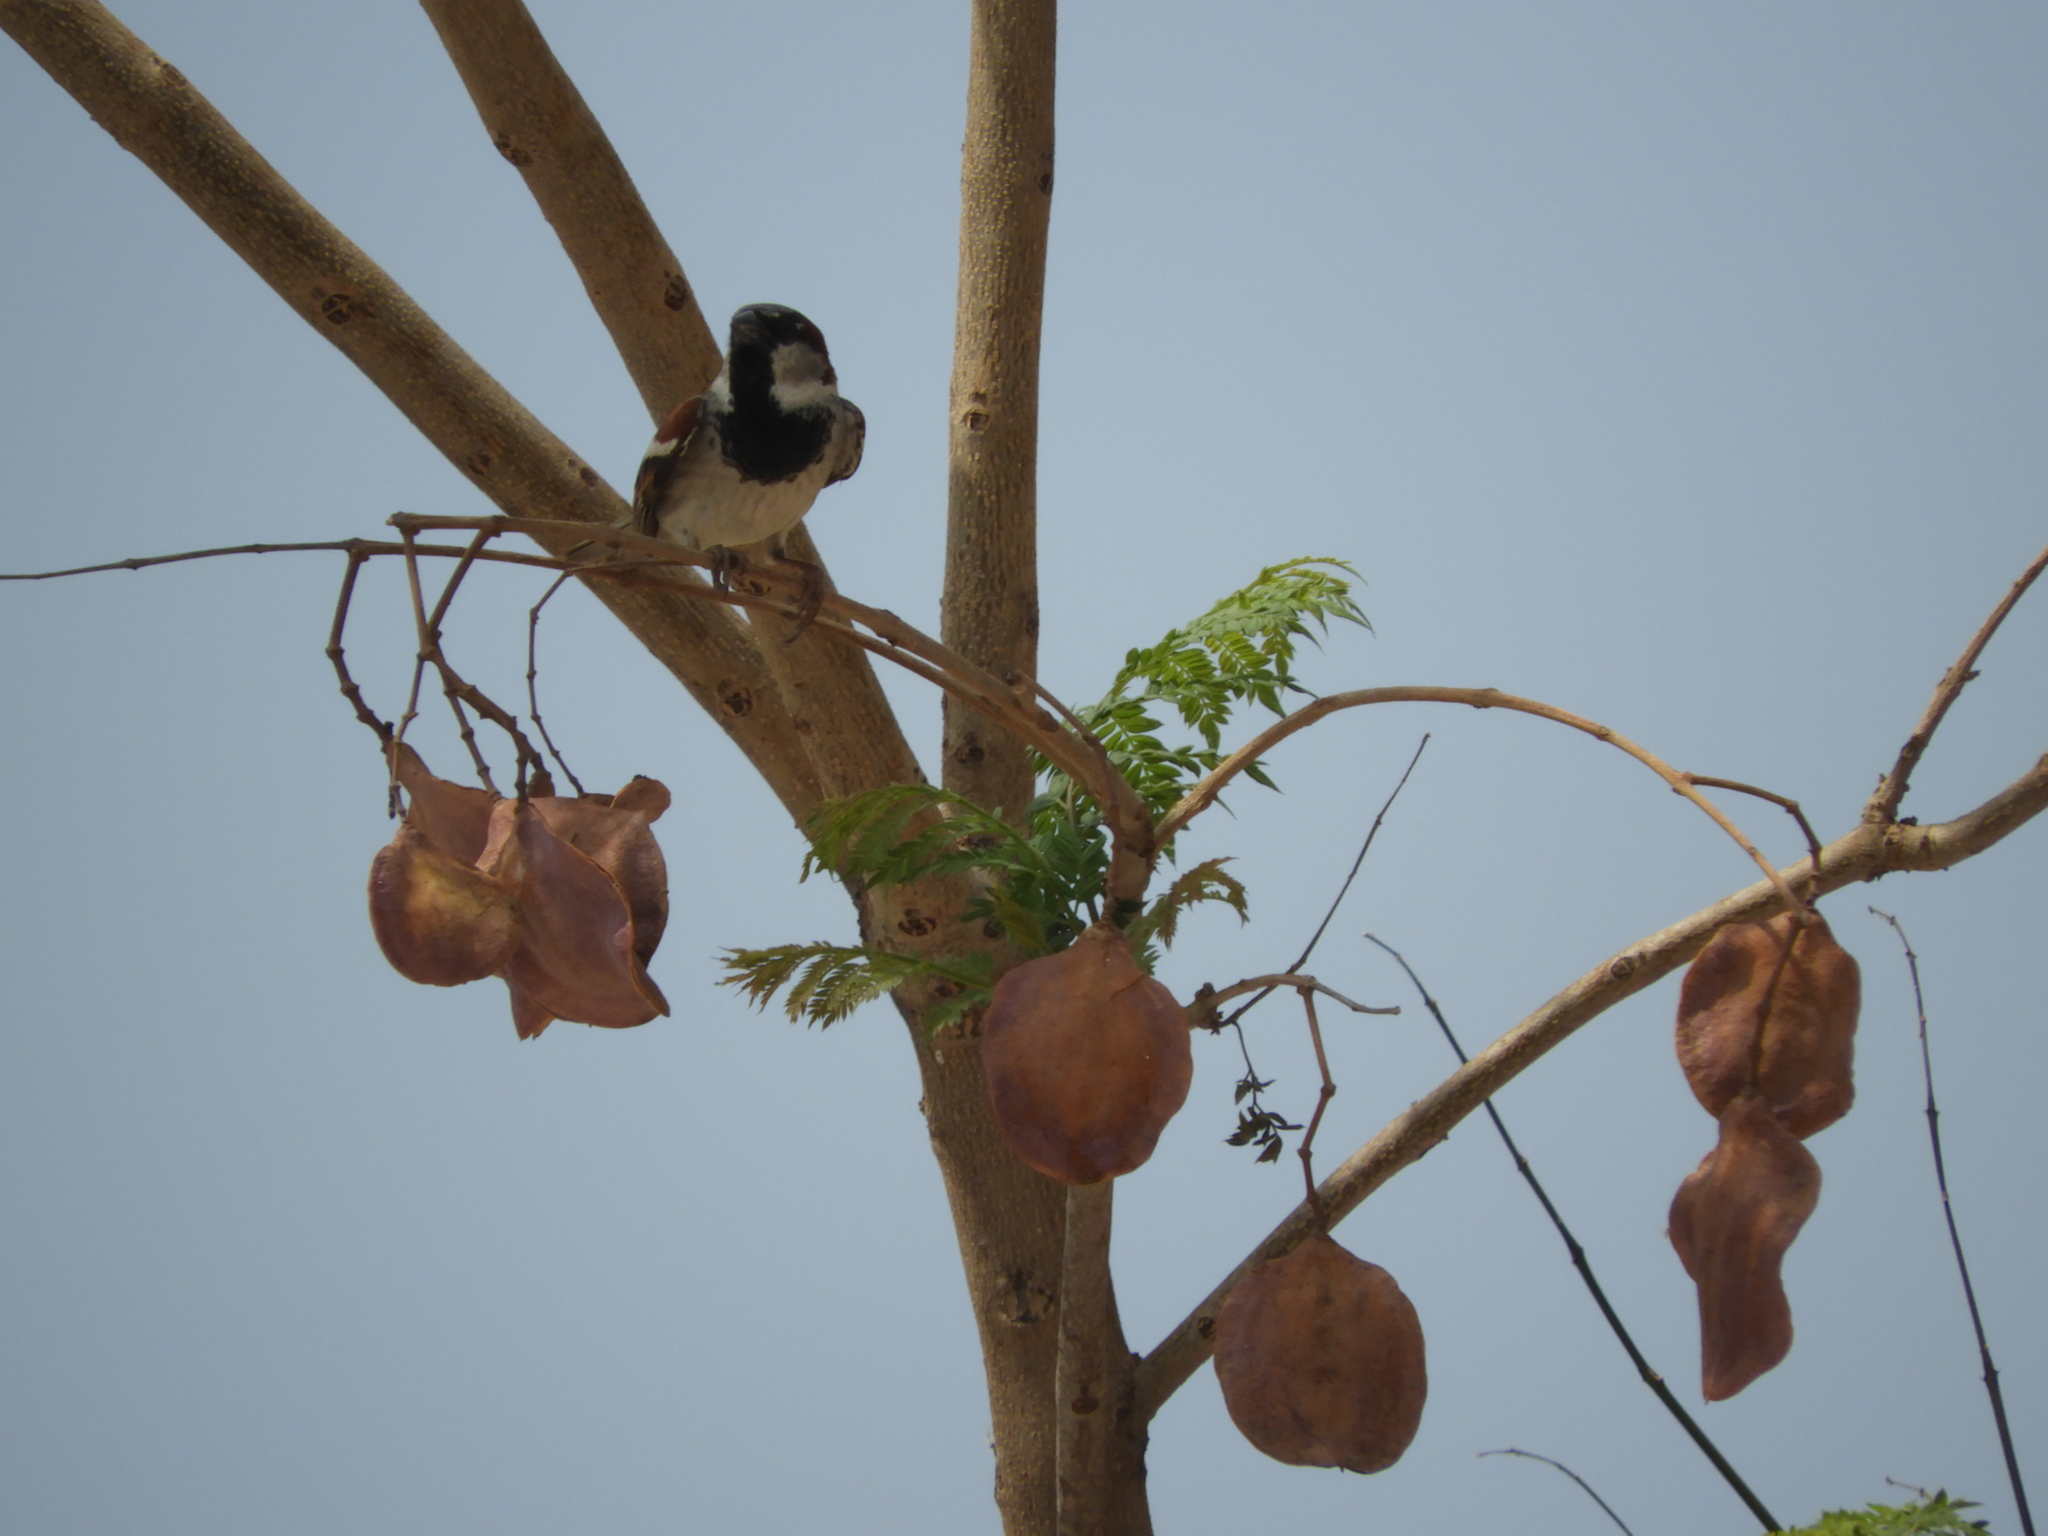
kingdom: Animalia
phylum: Chordata
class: Aves
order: Passeriformes
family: Passeridae
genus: Passer
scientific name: Passer domesticus
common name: House sparrow
